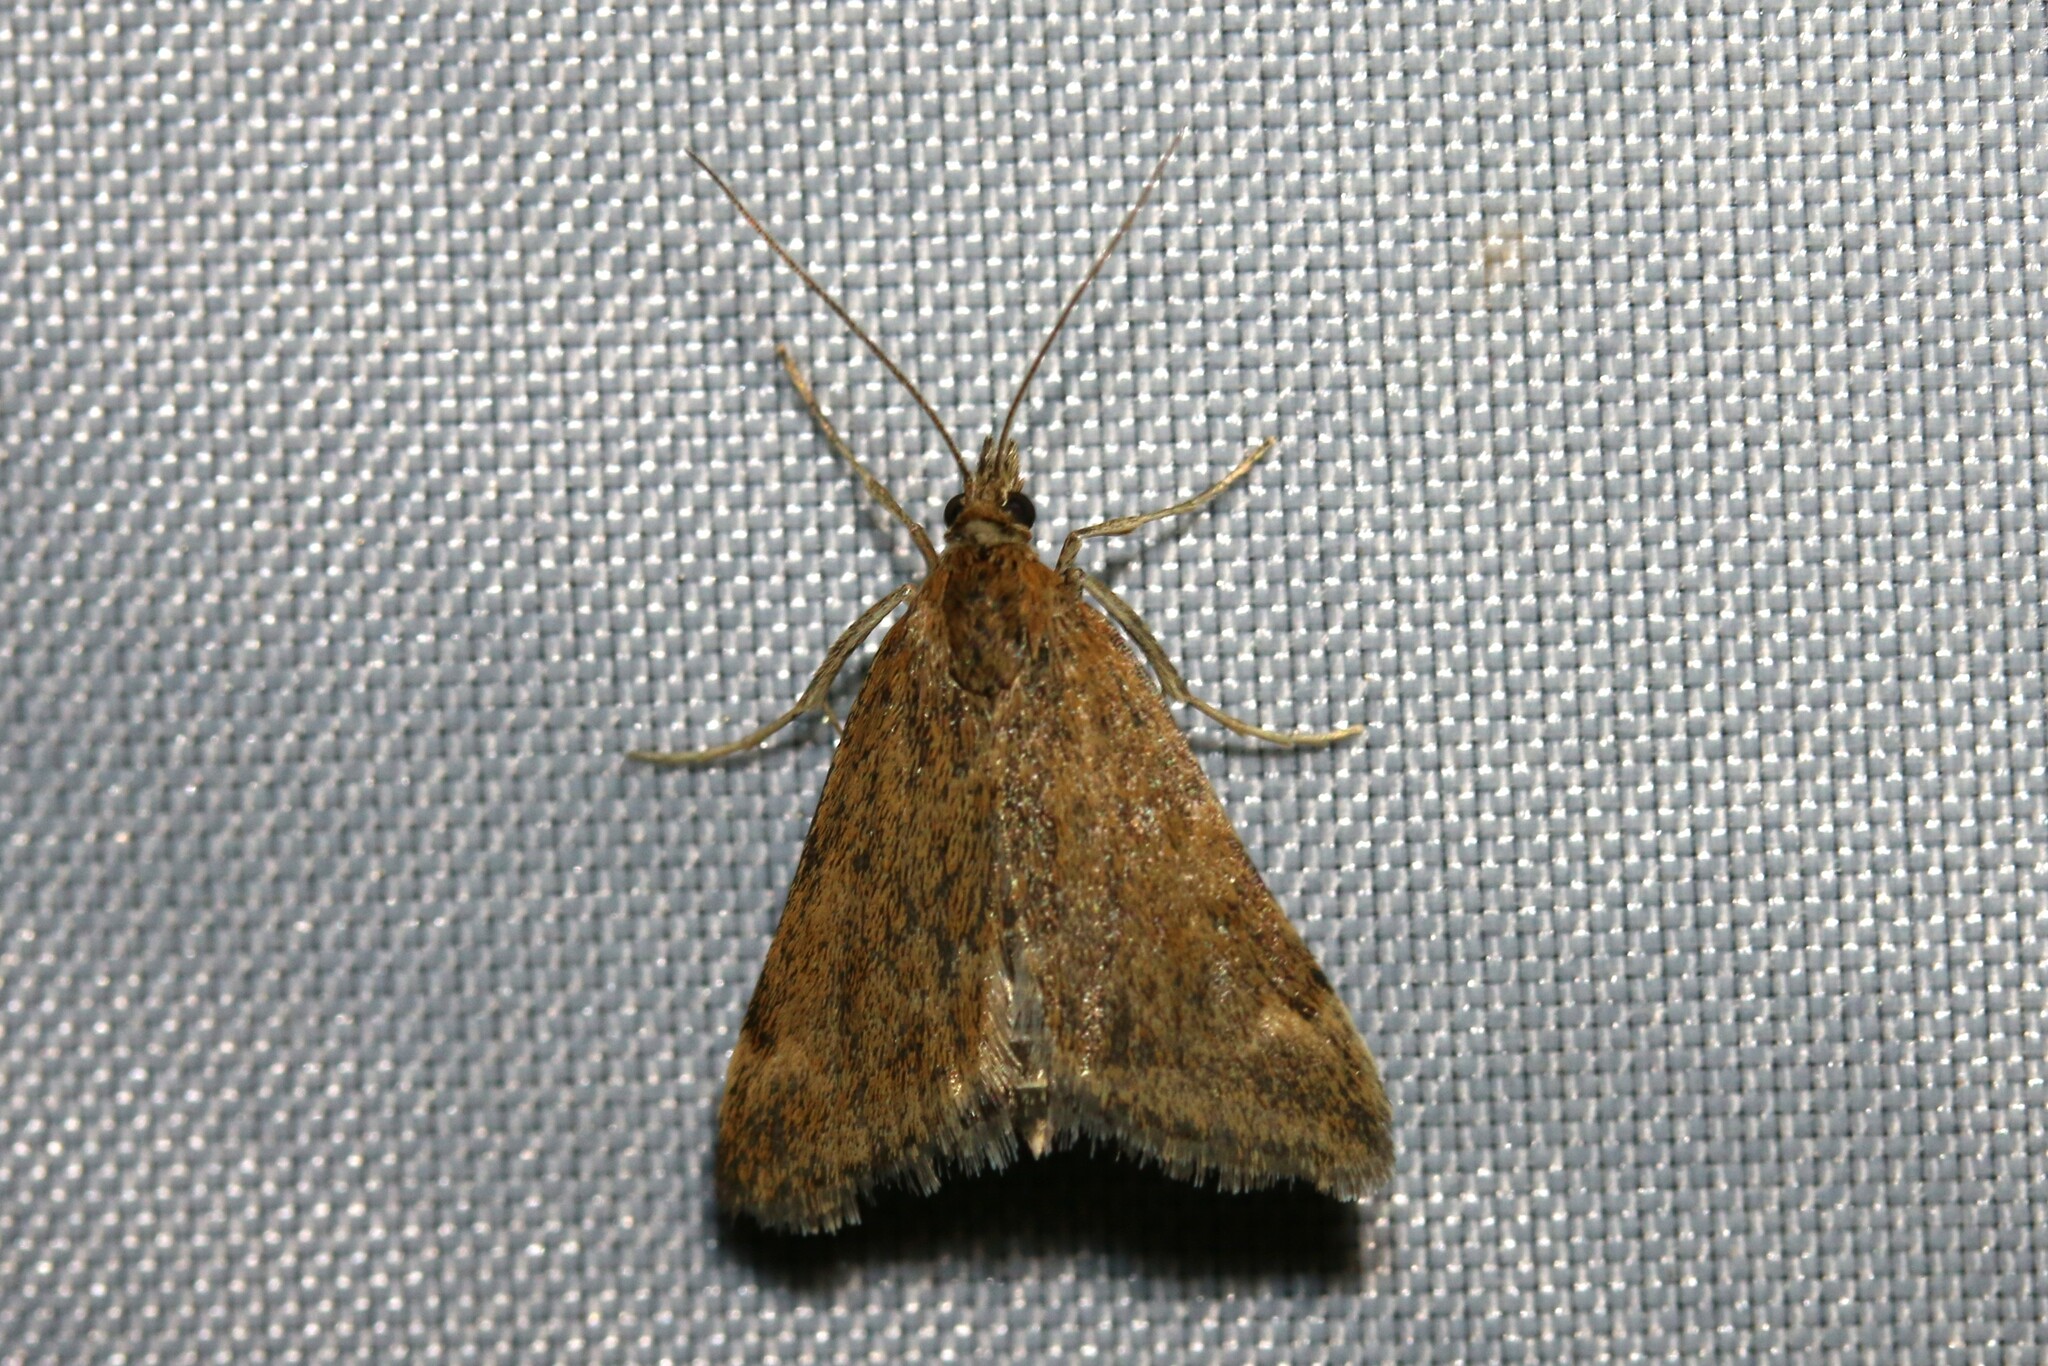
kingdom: Animalia
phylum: Arthropoda
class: Insecta
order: Lepidoptera
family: Crambidae
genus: Pyrausta
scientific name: Pyrausta despicata
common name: Straw-barred pearl
